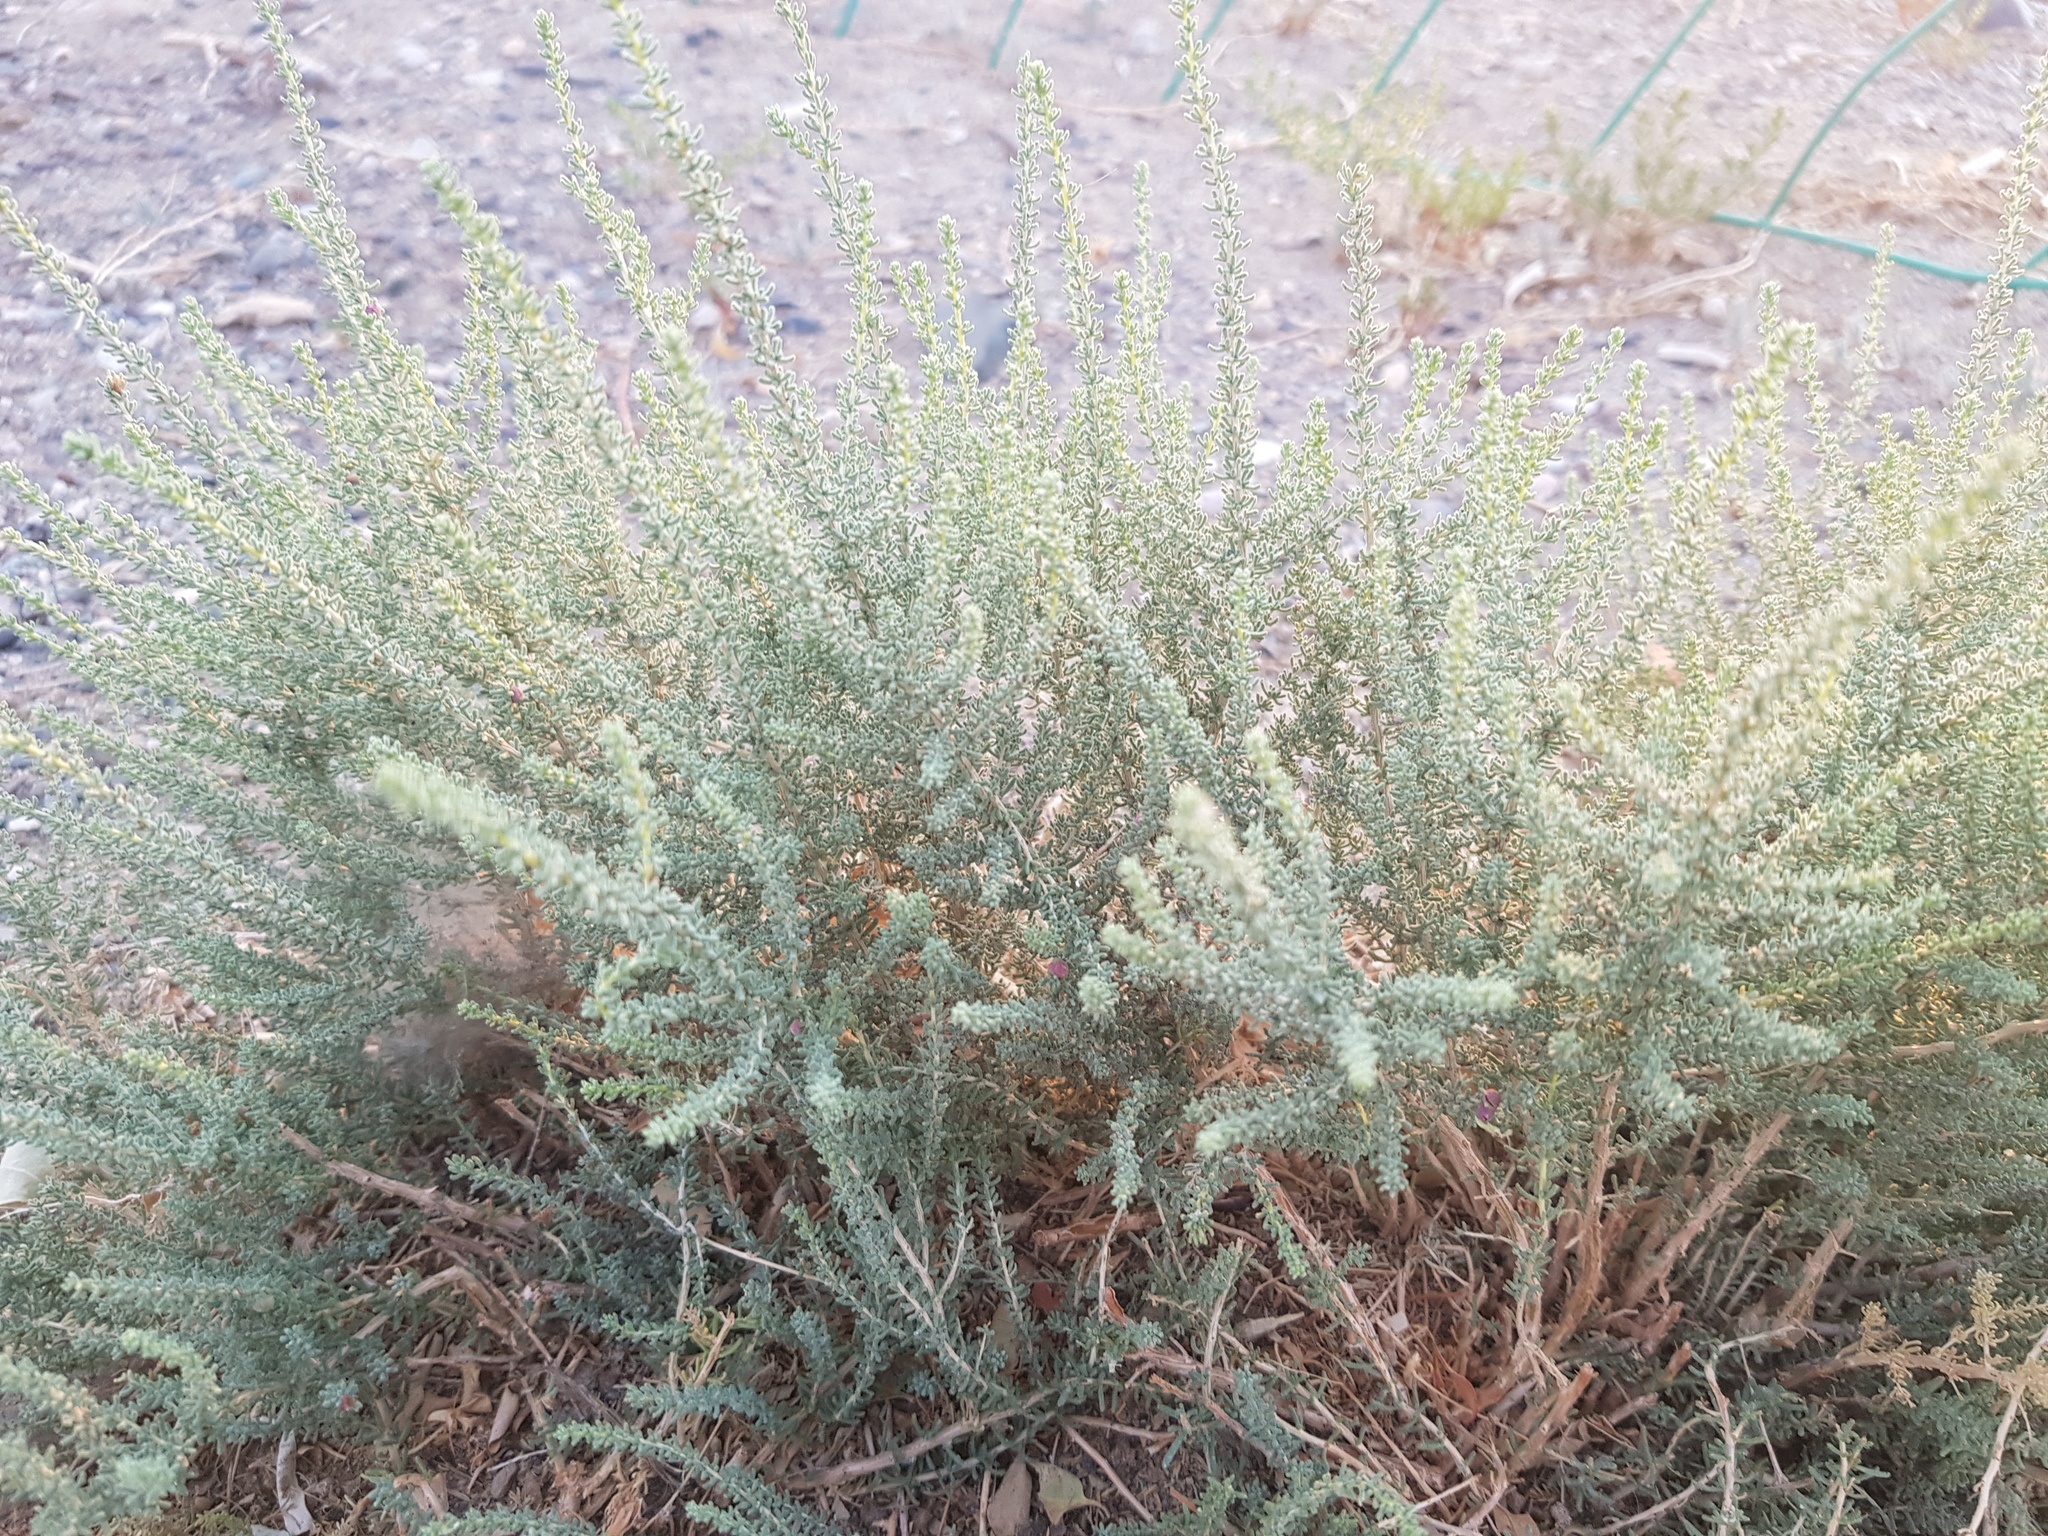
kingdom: Plantae
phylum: Tracheophyta
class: Magnoliopsida
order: Caryophyllales
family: Tamaricaceae
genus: Reaumuria
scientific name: Reaumuria songarica
